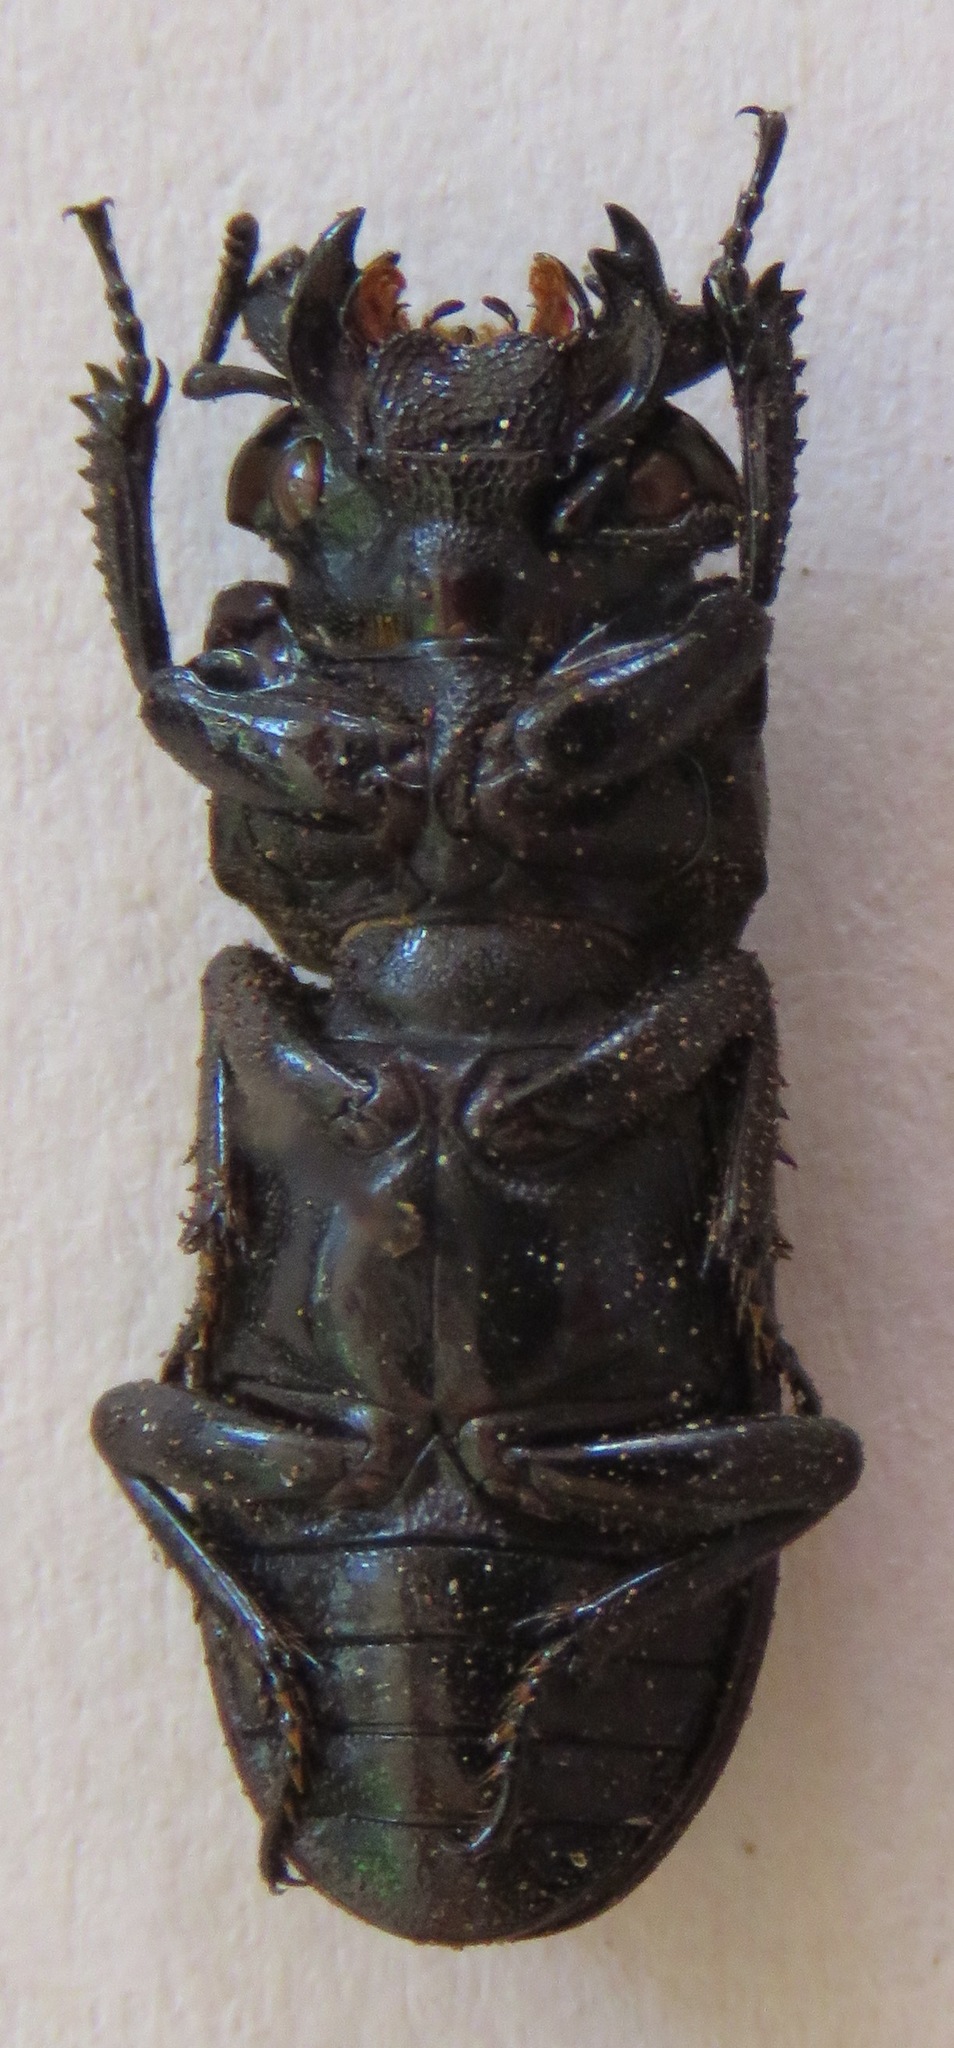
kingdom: Animalia
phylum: Arthropoda
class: Insecta
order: Coleoptera
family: Lucanidae
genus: Nigidius
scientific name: Nigidius elongatus
